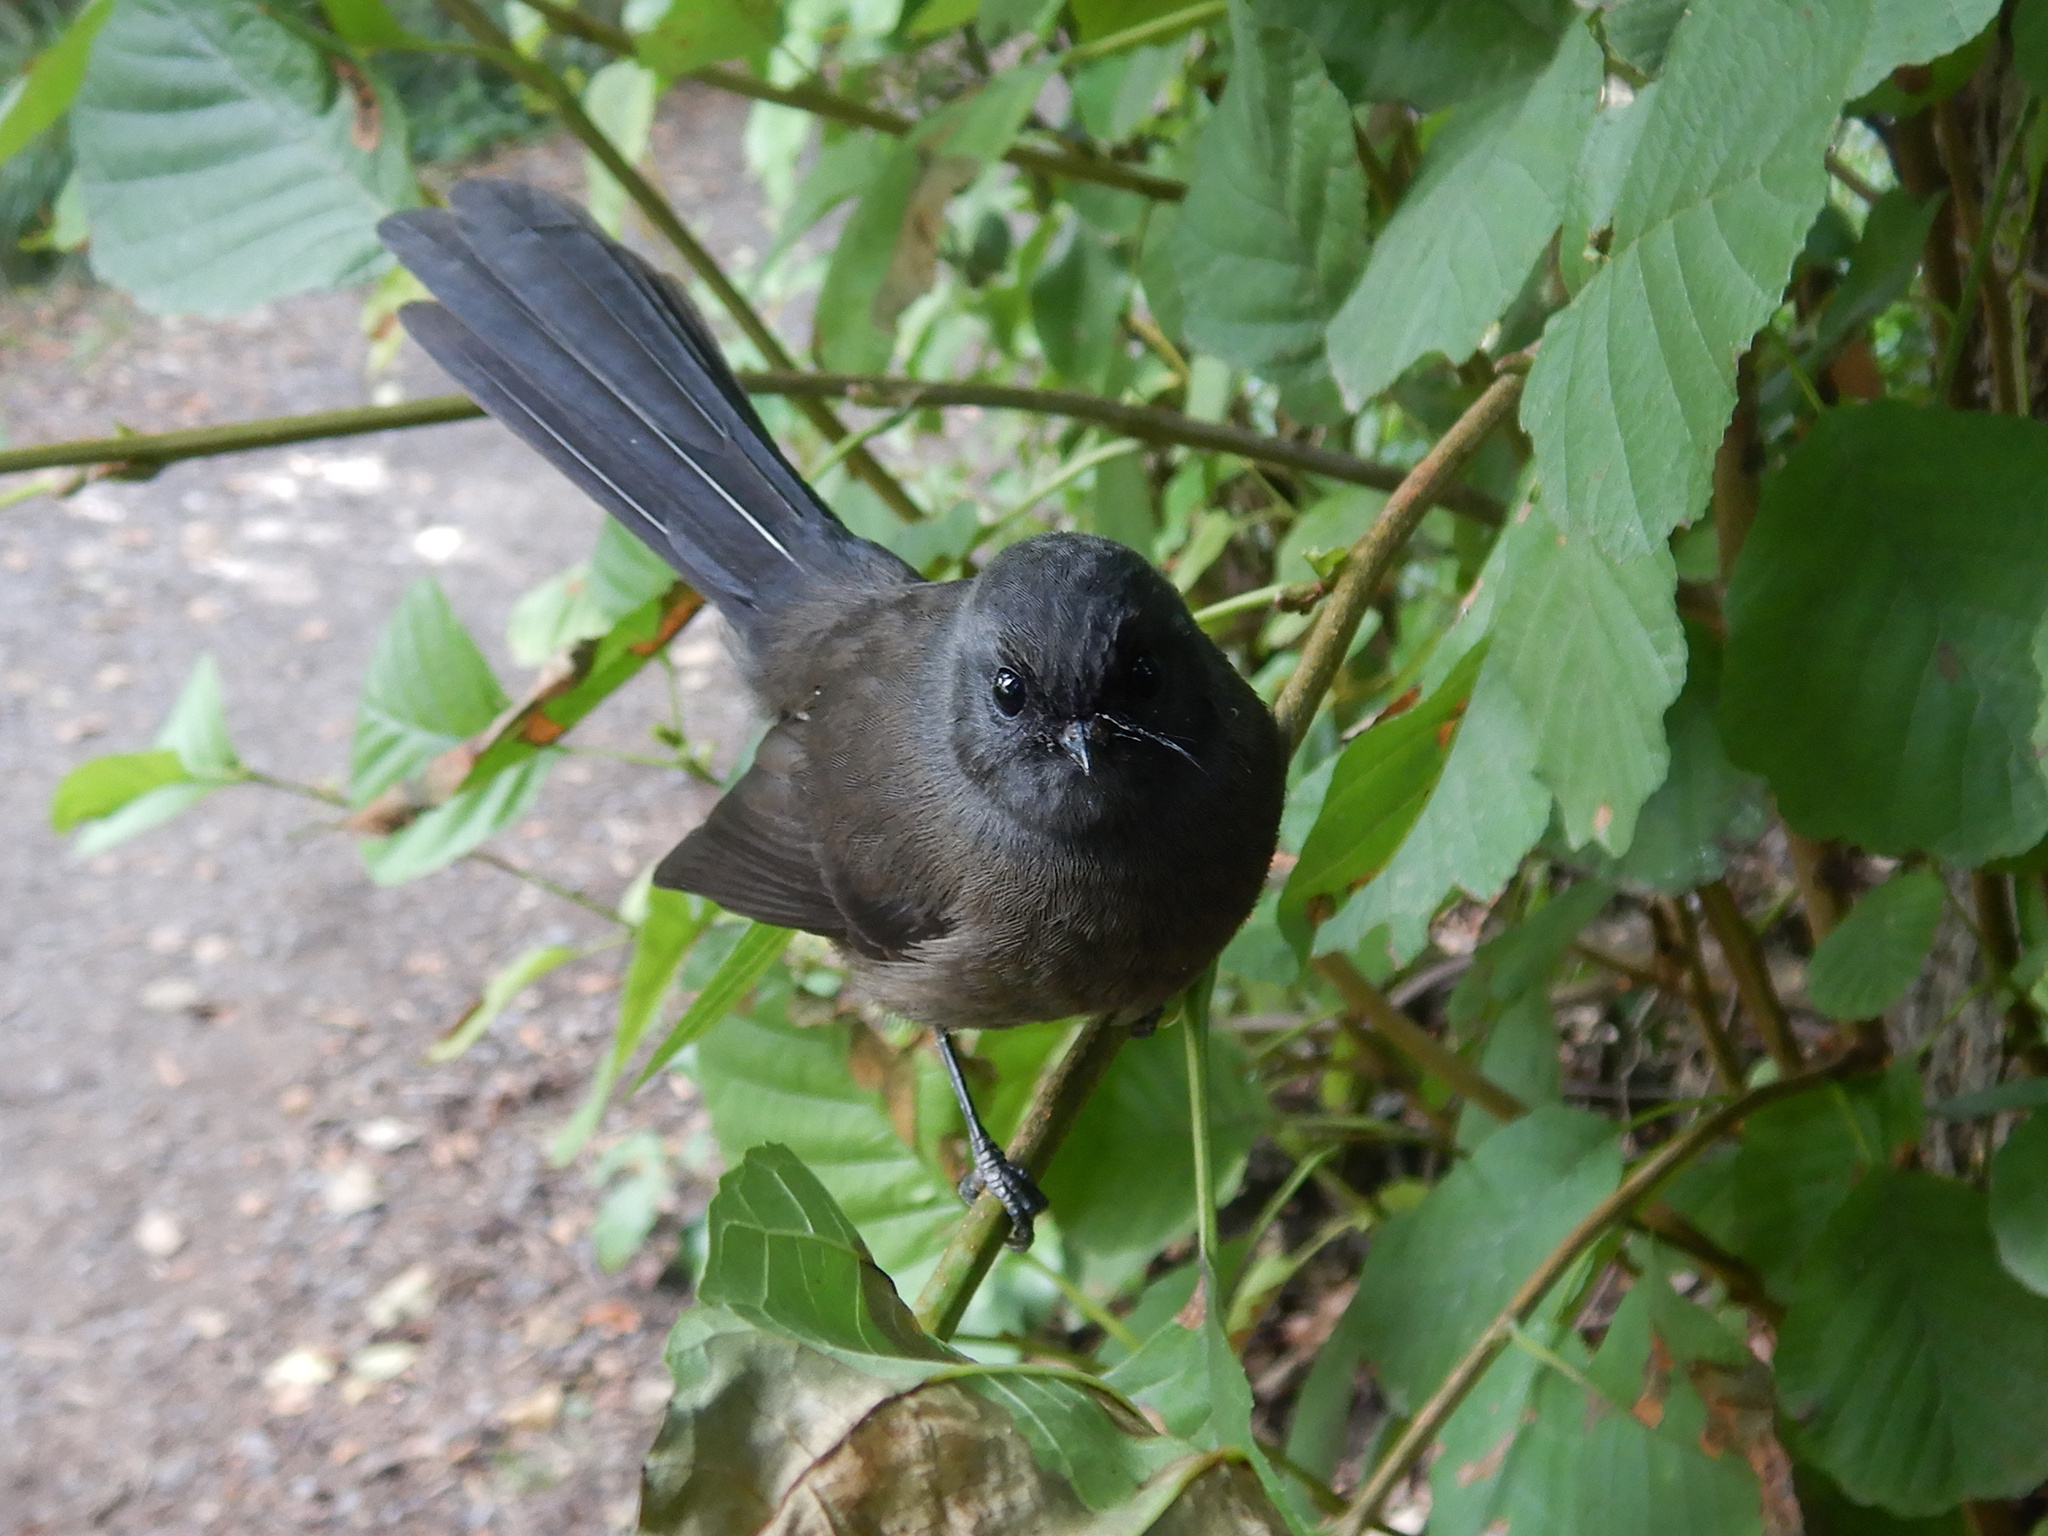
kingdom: Animalia
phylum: Chordata
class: Aves
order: Passeriformes
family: Rhipiduridae
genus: Rhipidura
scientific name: Rhipidura fuliginosa
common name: New zealand fantail
